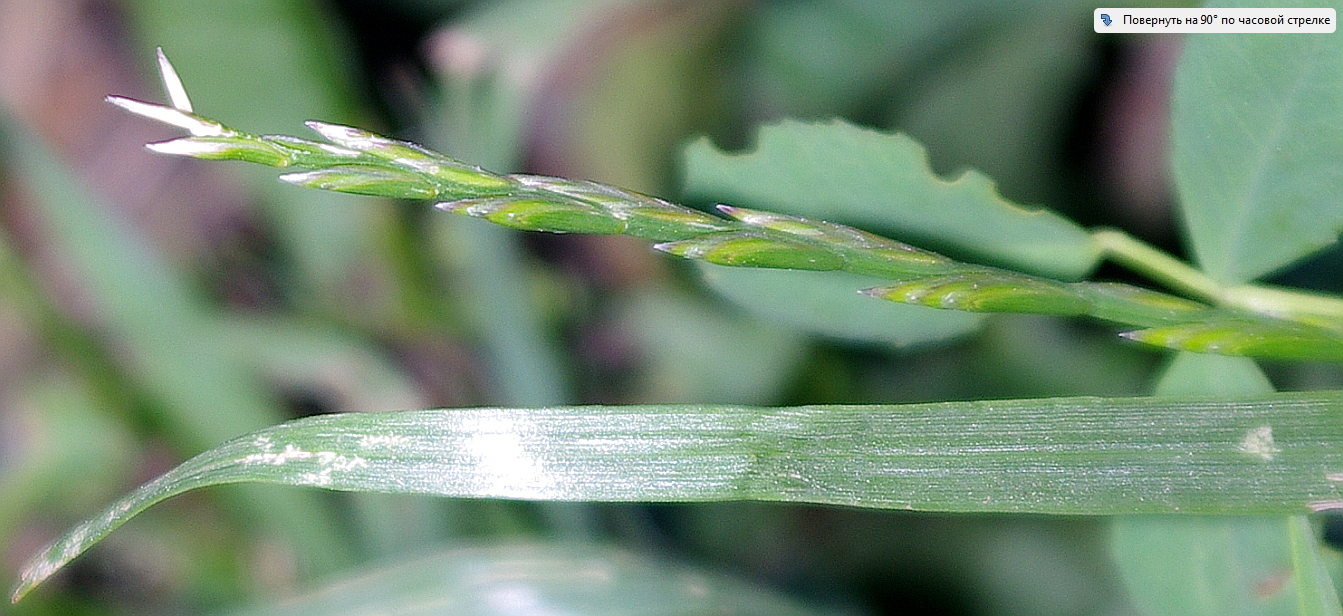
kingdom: Plantae
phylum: Tracheophyta
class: Liliopsida
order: Poales
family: Poaceae
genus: Lolium
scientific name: Lolium perenne
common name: Perennial ryegrass
